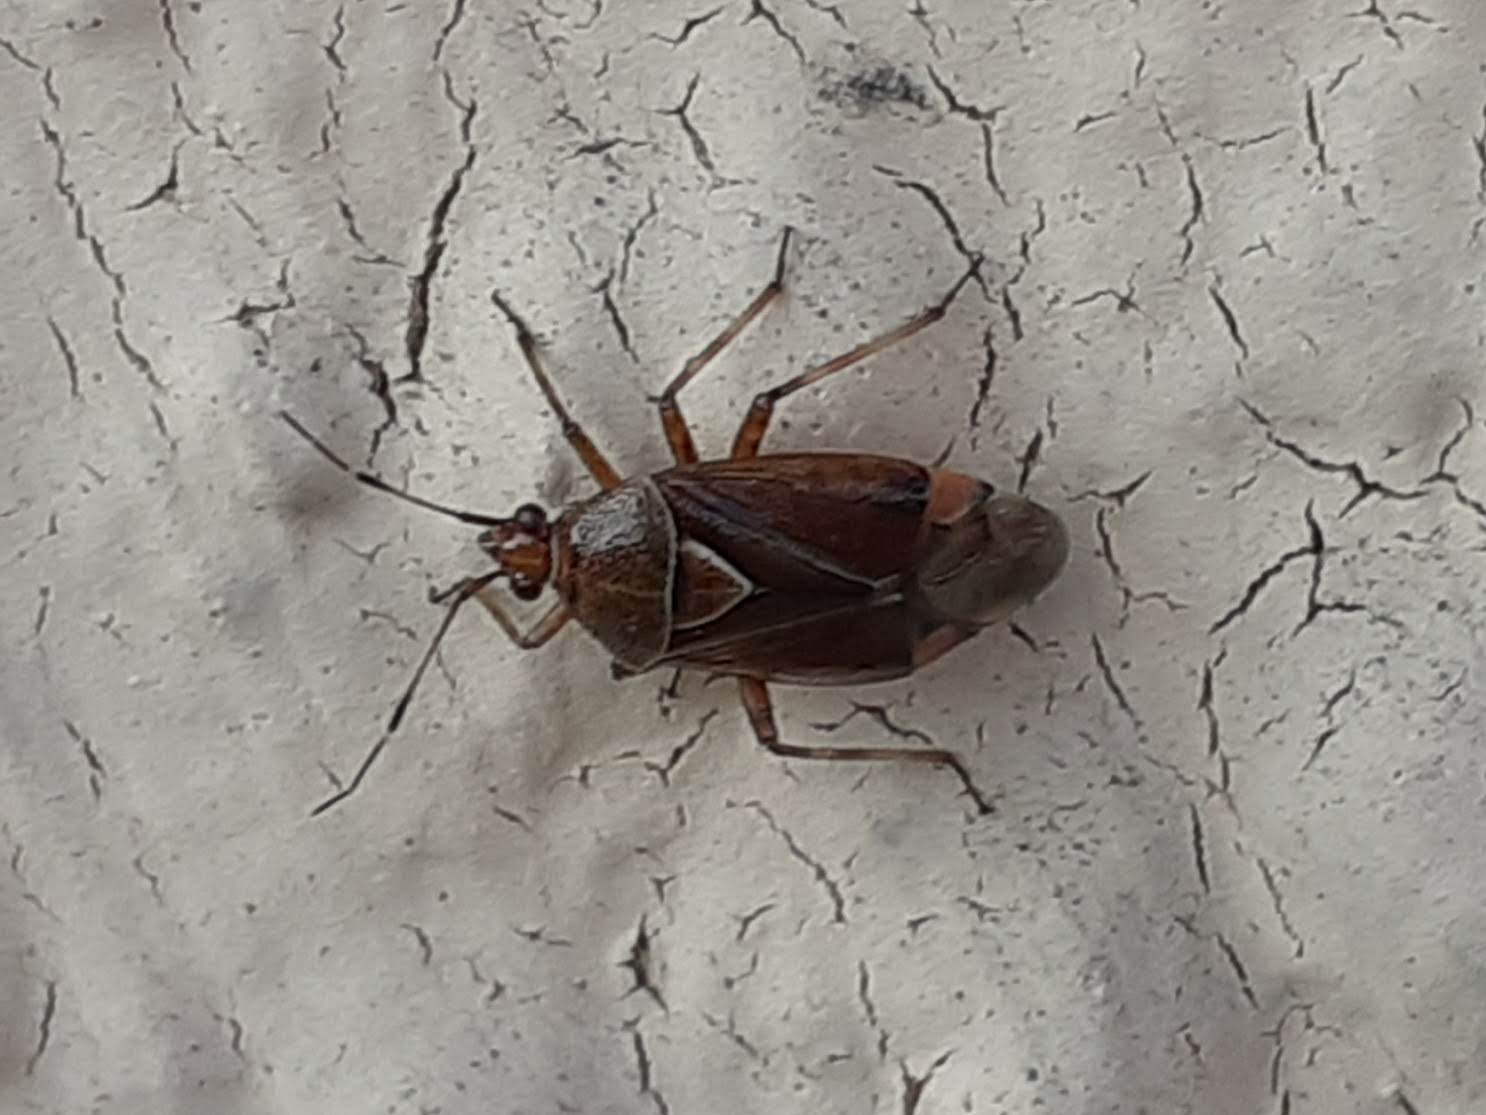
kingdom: Animalia
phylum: Arthropoda
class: Insecta
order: Hemiptera
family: Miridae
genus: Deraeocoris
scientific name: Deraeocoris flavilinea
